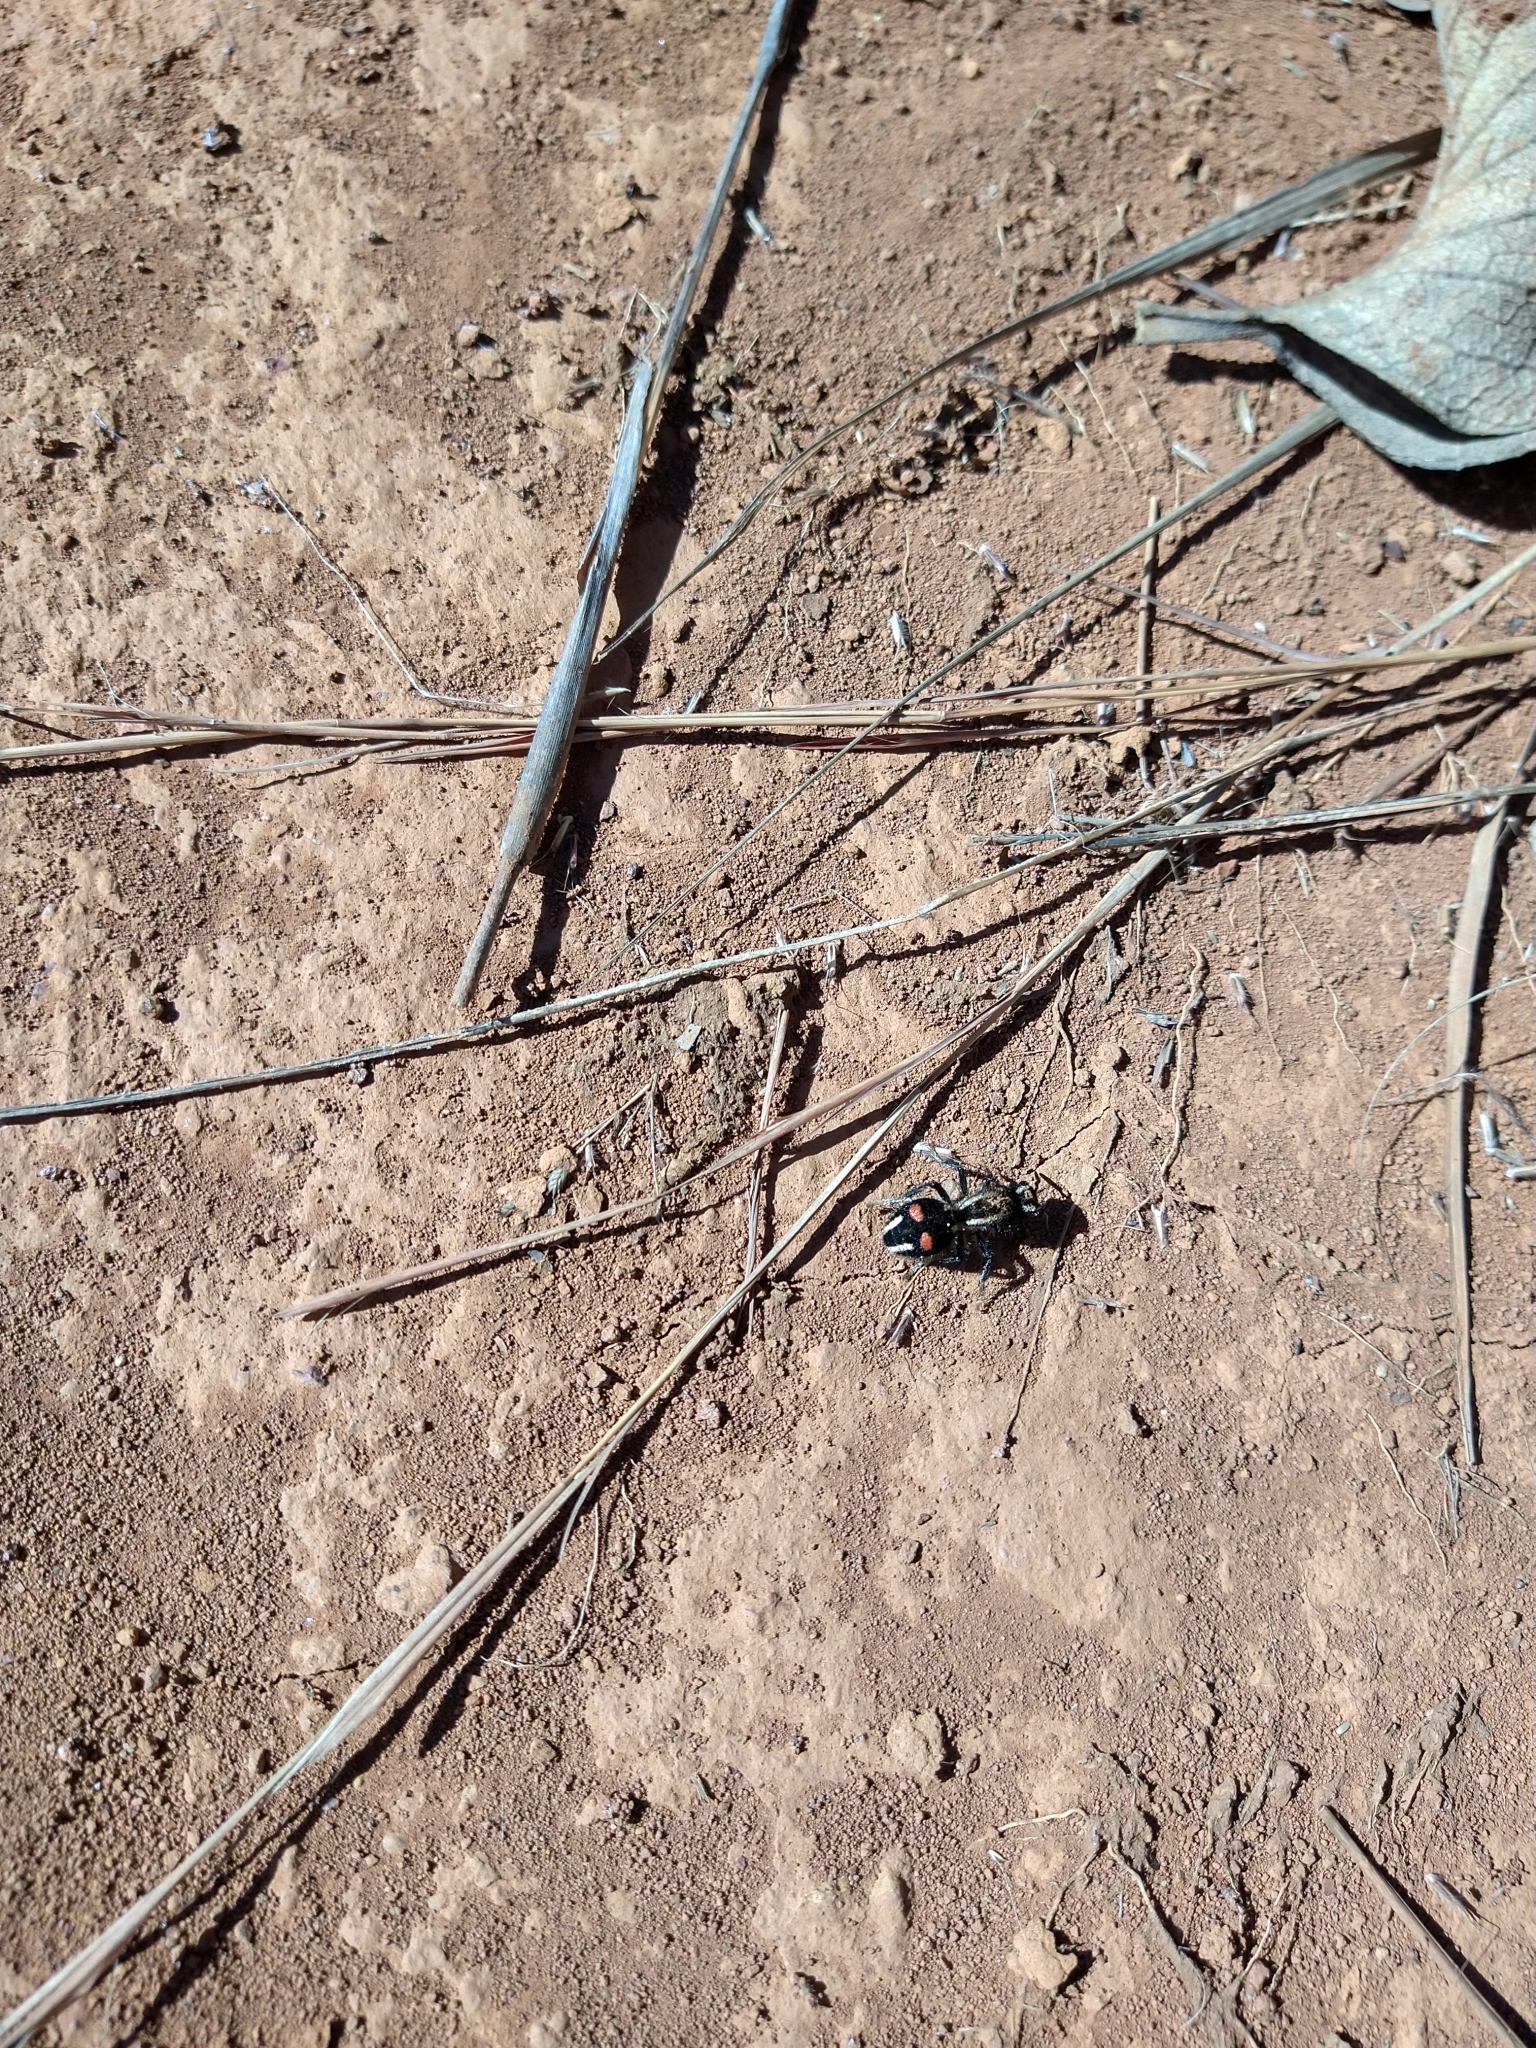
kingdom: Animalia
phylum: Arthropoda
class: Insecta
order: Hymenoptera
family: Mutillidae
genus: Hoplomutilla
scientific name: Hoplomutilla myops
